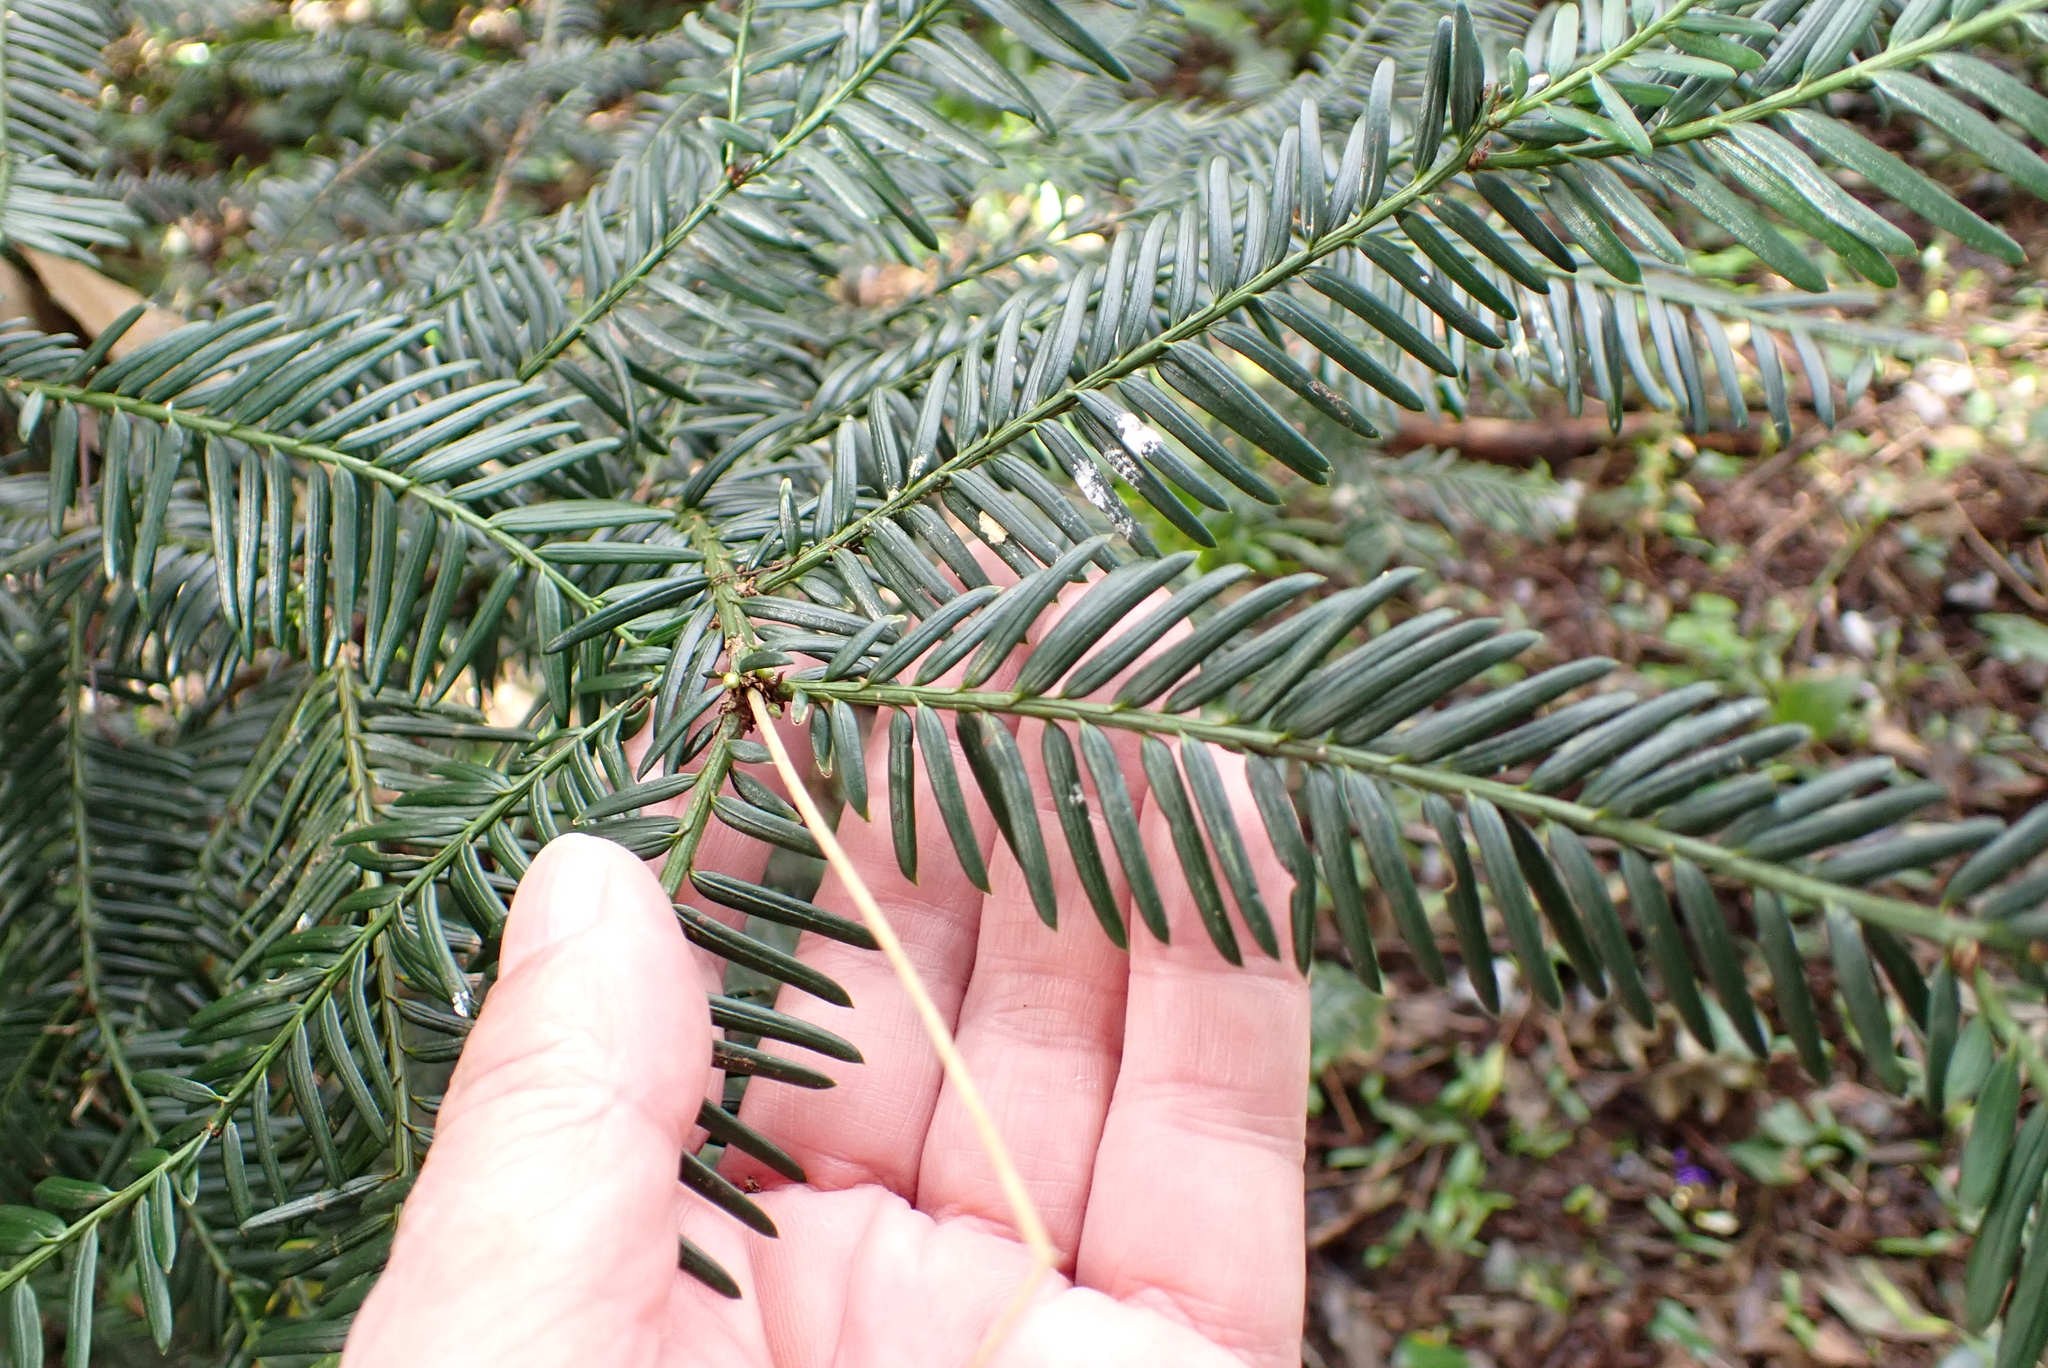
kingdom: Plantae
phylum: Tracheophyta
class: Pinopsida
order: Pinales
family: Taxaceae
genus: Taxus
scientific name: Taxus baccata
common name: Yew
